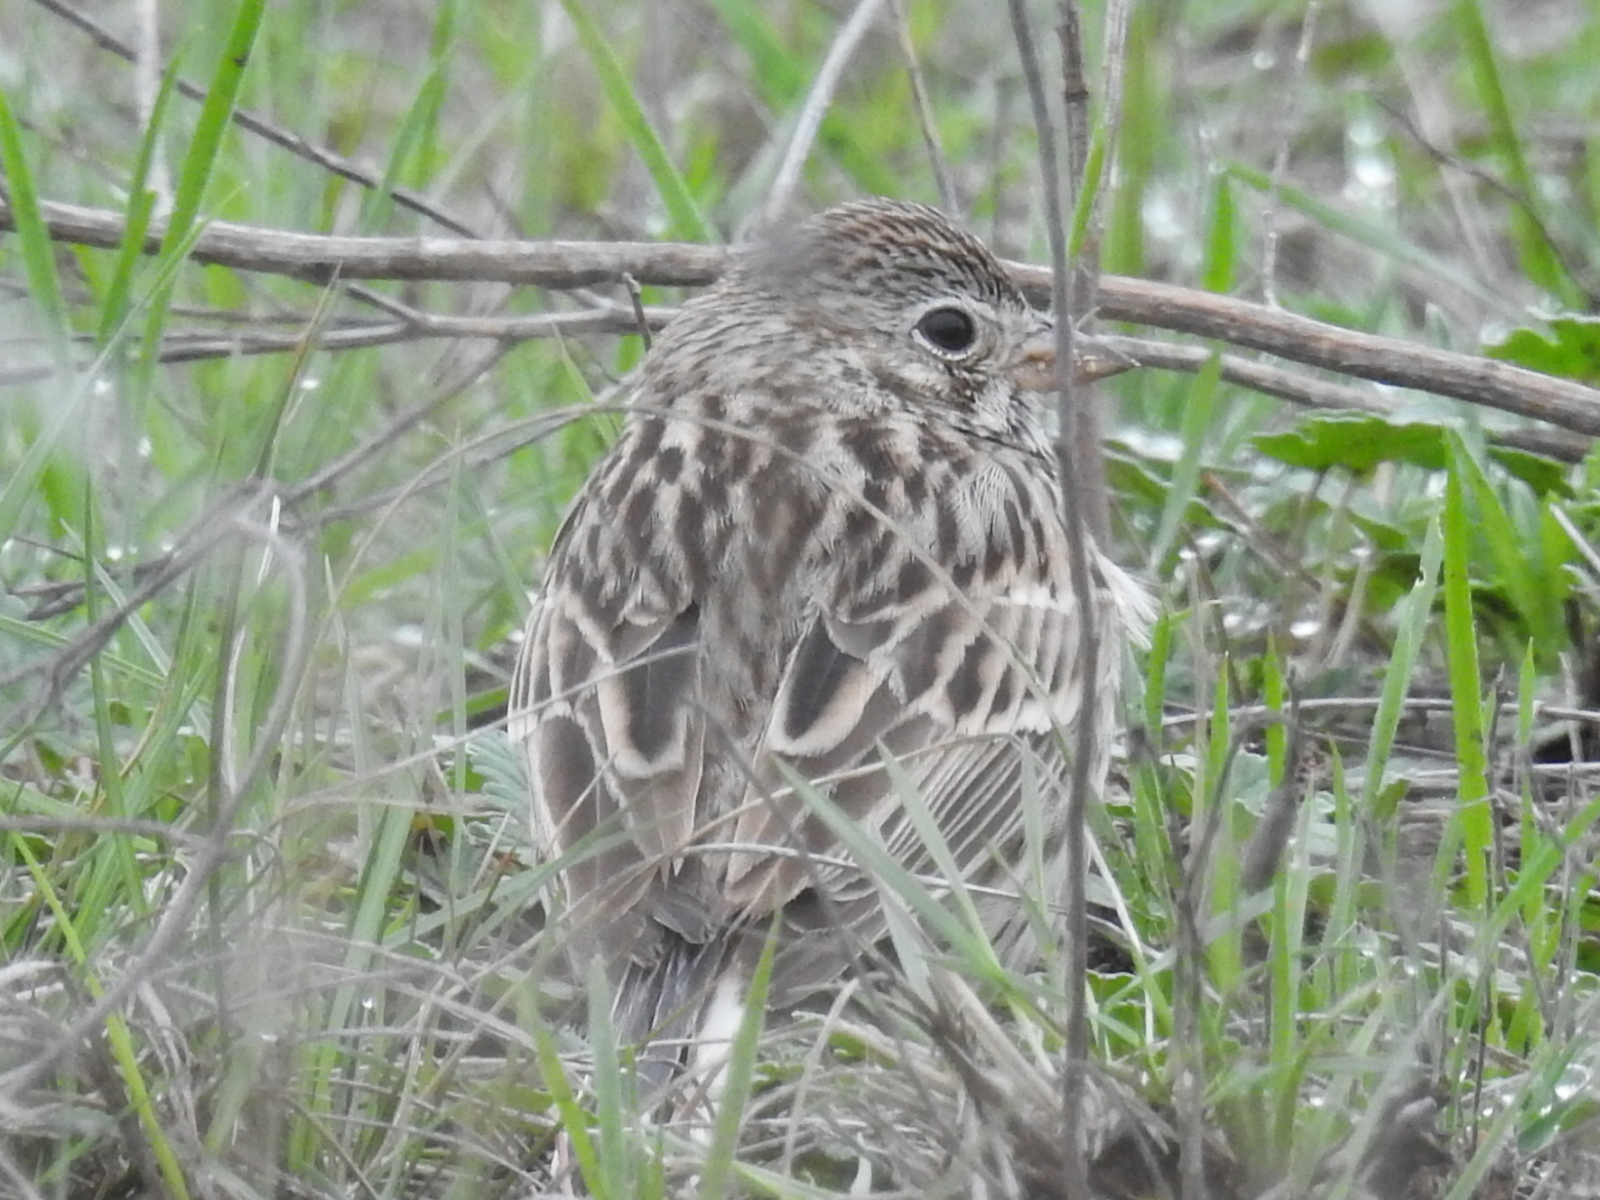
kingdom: Animalia
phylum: Chordata
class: Aves
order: Passeriformes
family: Passerellidae
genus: Pooecetes
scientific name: Pooecetes gramineus
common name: Vesper sparrow
